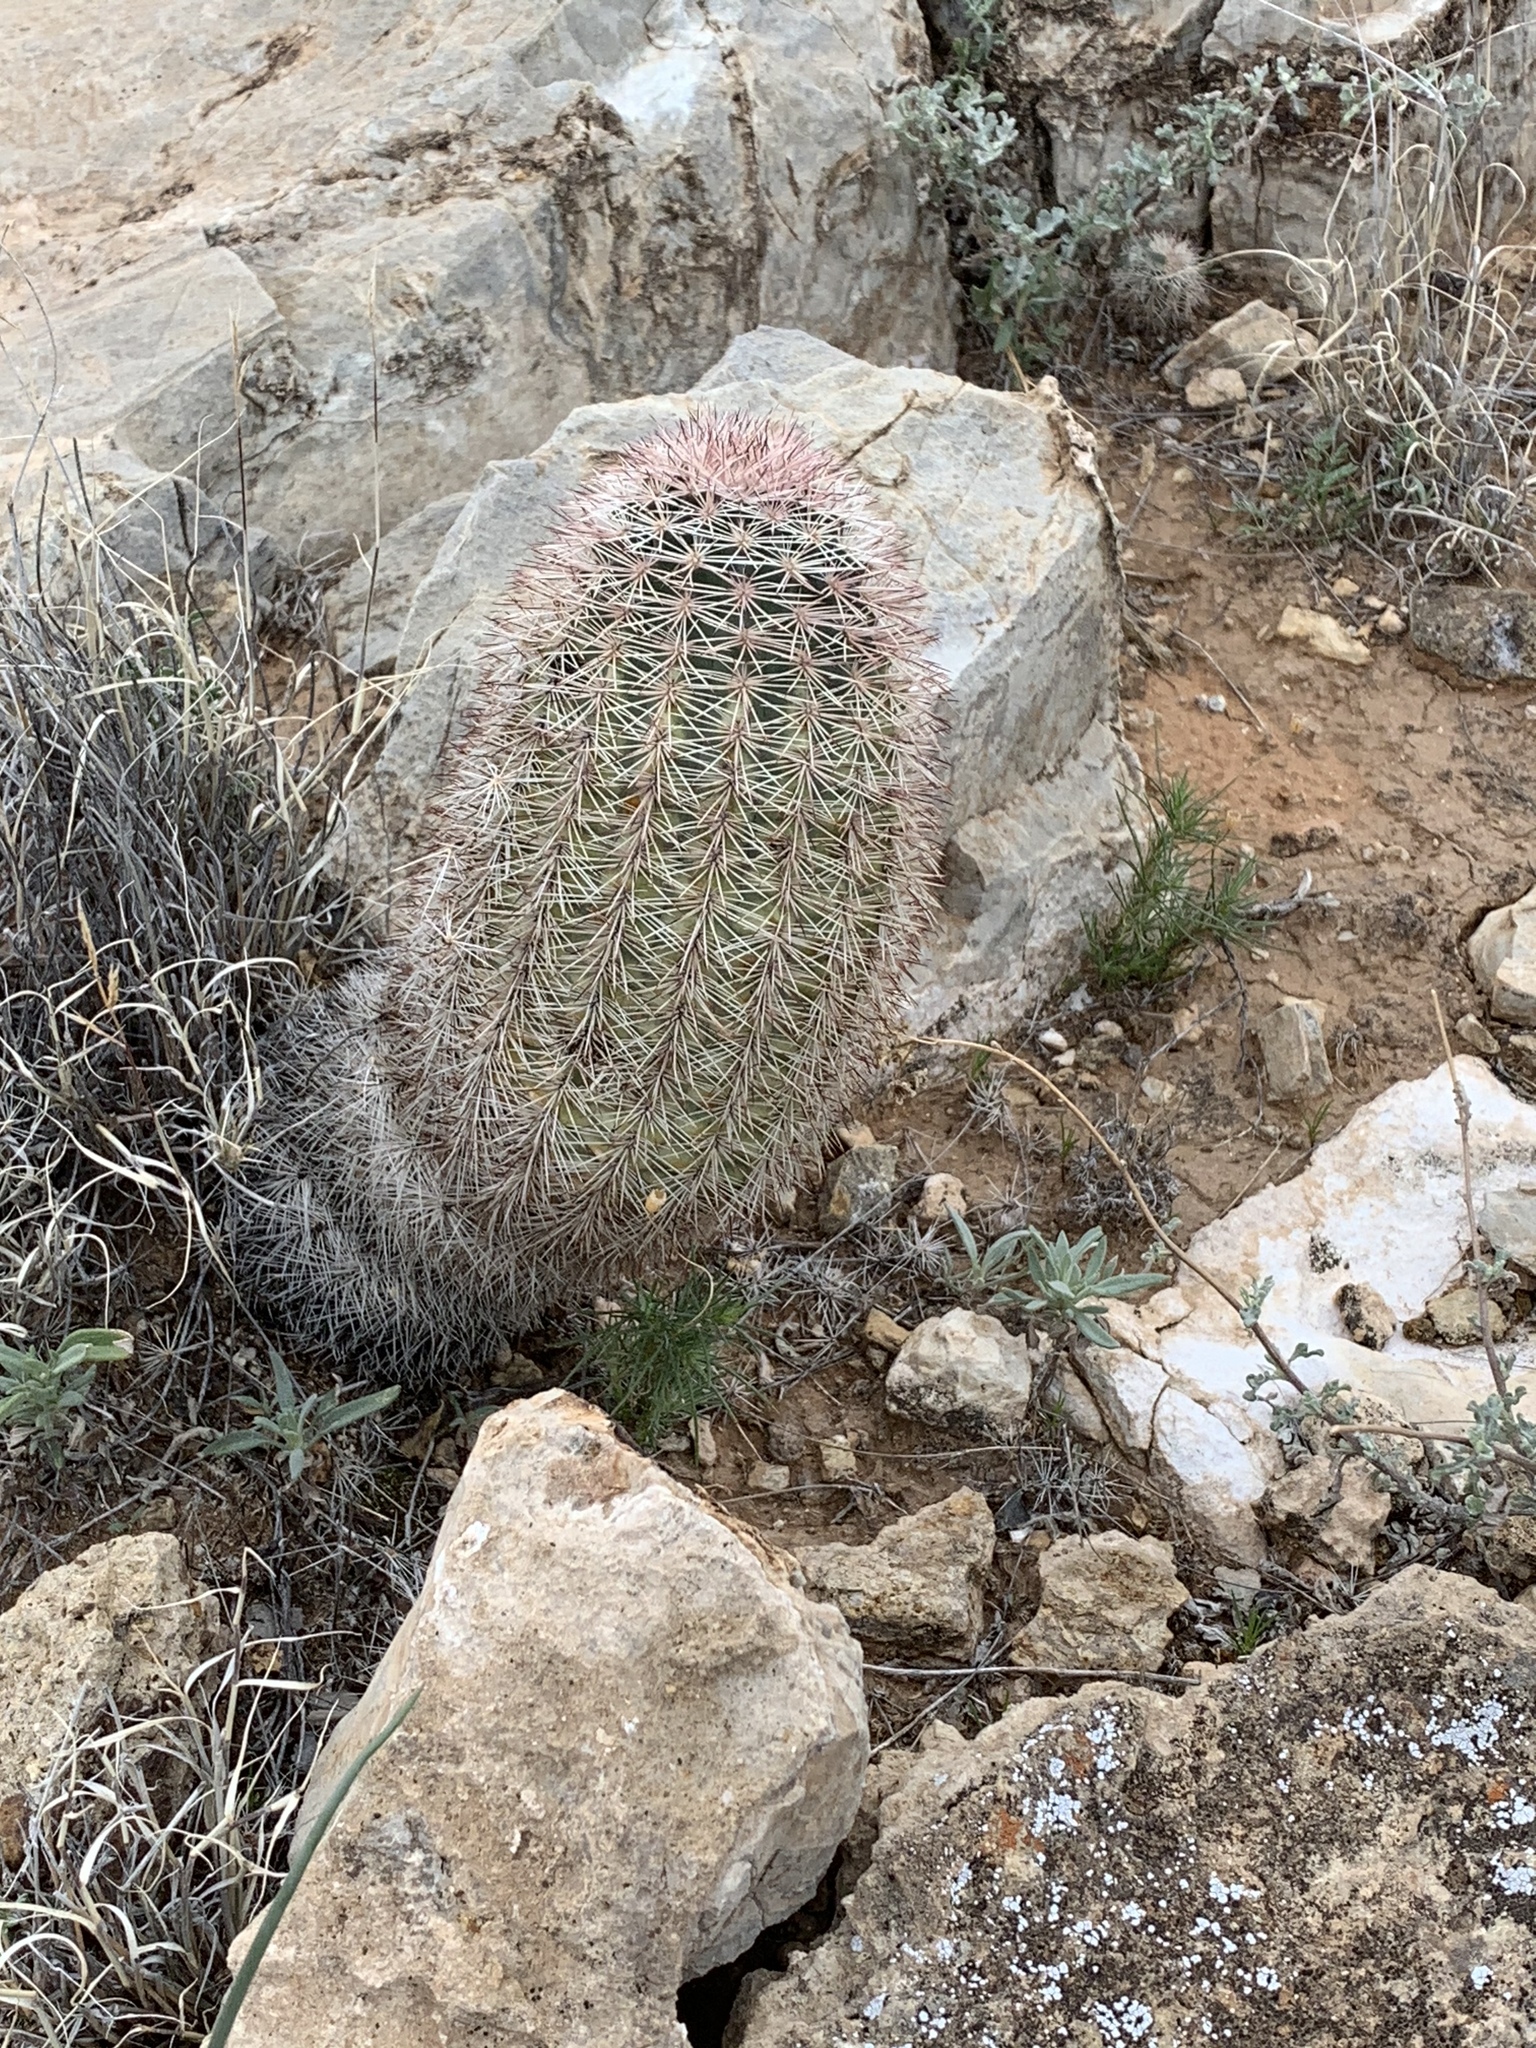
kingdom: Plantae
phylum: Tracheophyta
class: Magnoliopsida
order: Caryophyllales
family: Cactaceae
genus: Echinocereus
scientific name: Echinocereus dasyacanthus
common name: Spiny hedgehog cactus
